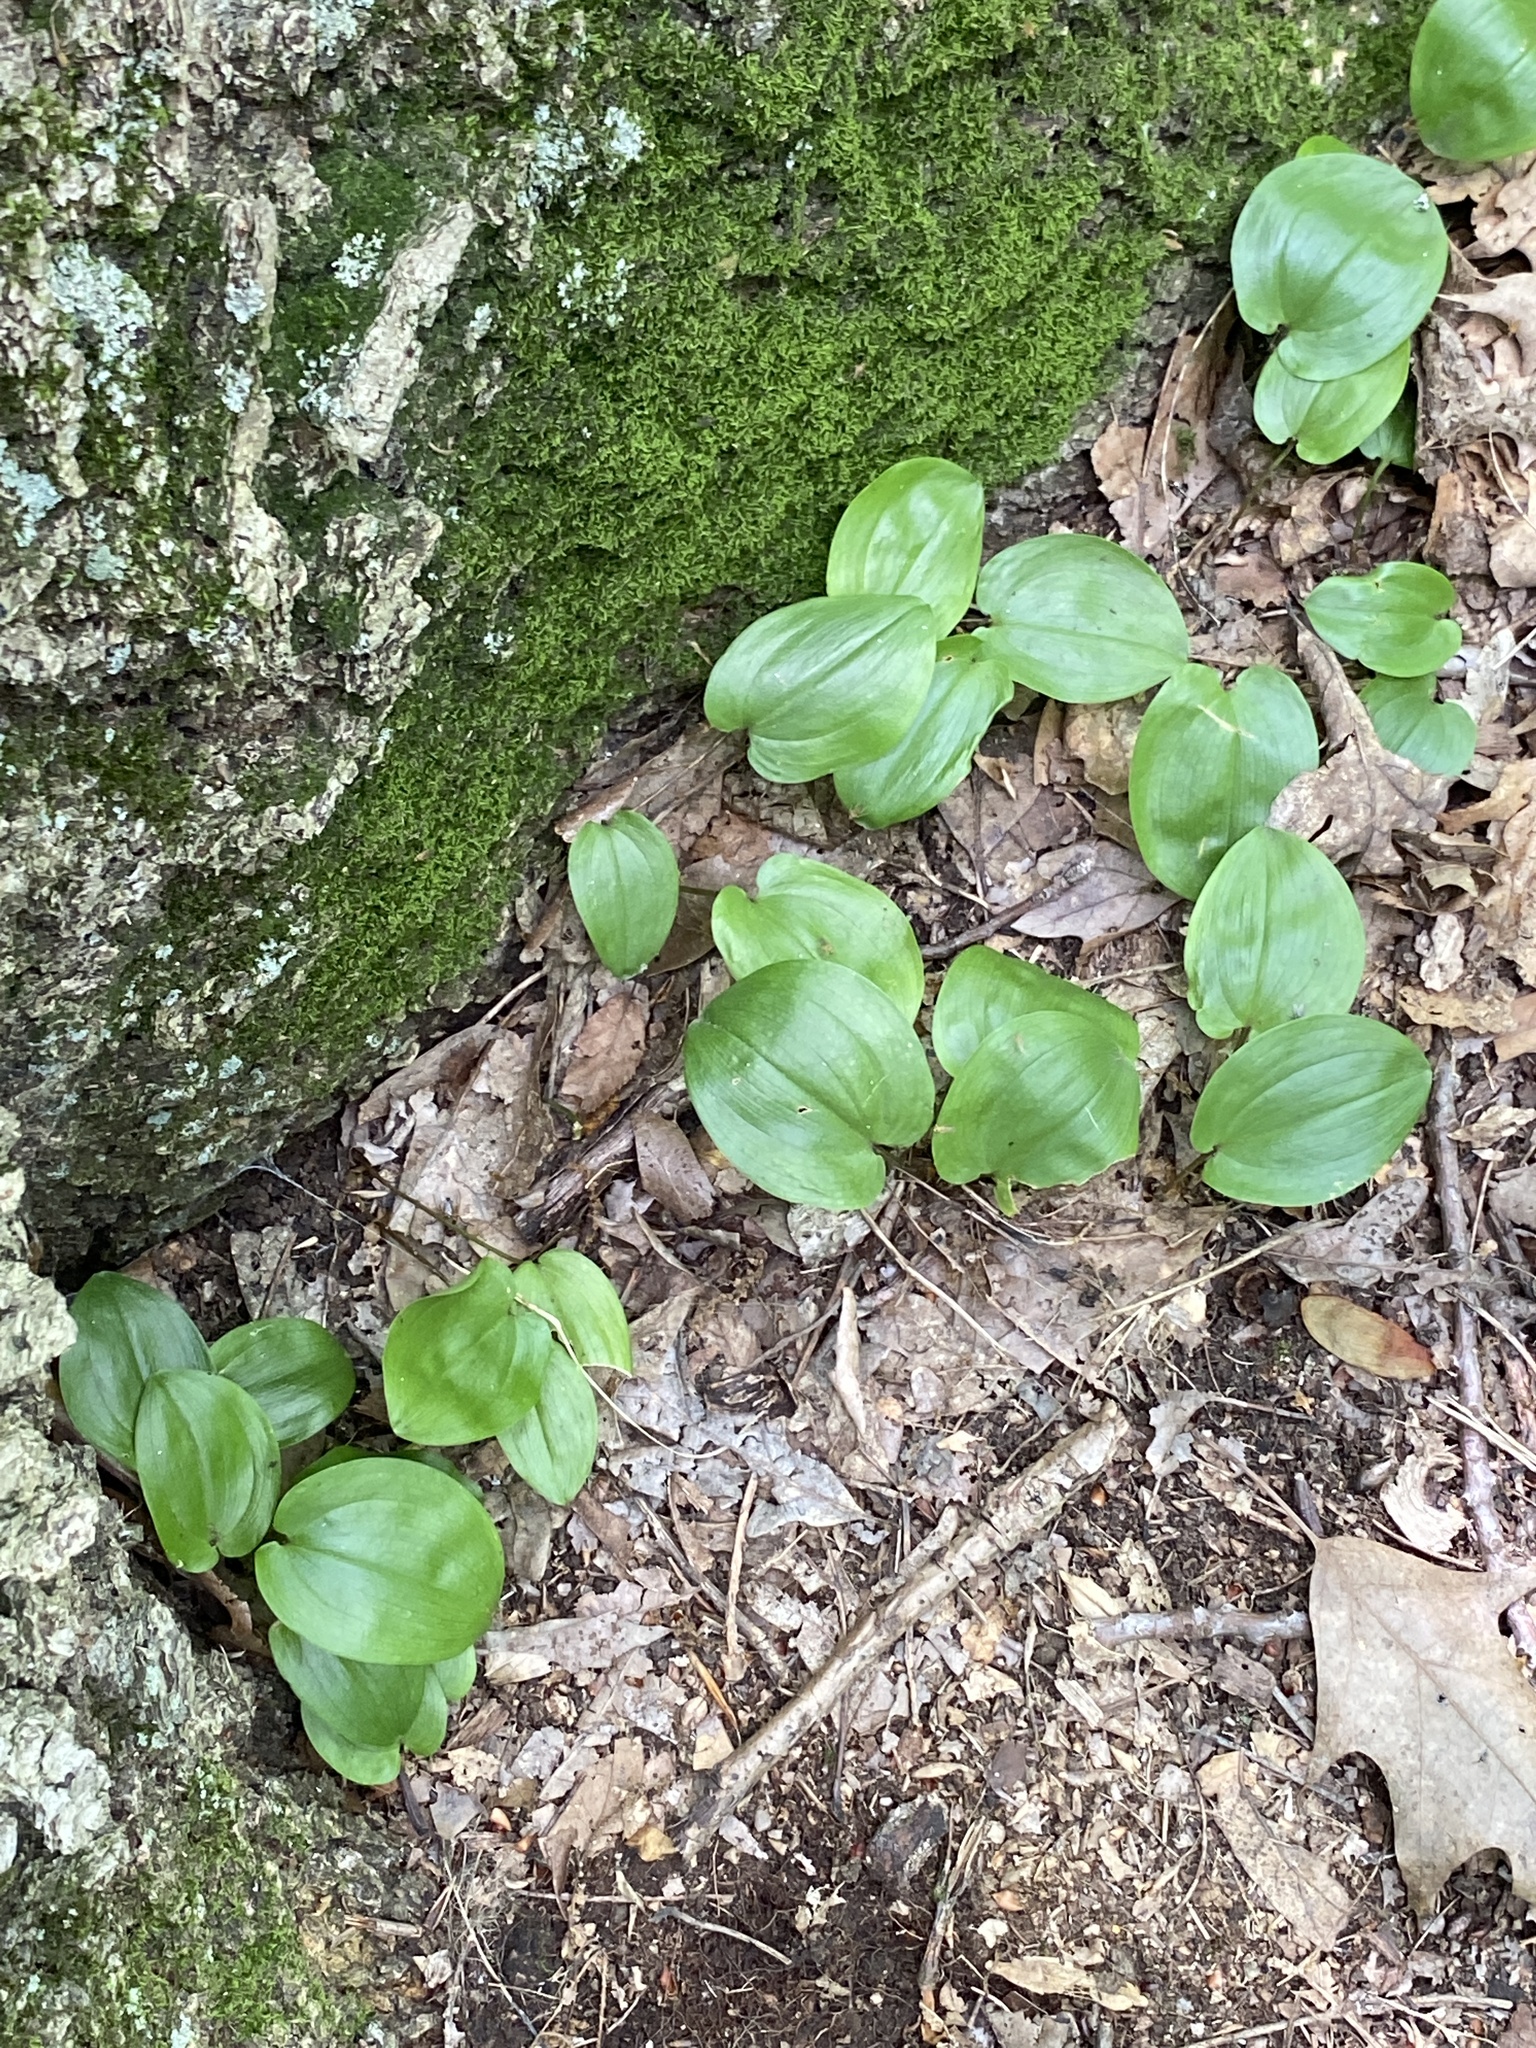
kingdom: Plantae
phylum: Tracheophyta
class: Liliopsida
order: Asparagales
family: Asparagaceae
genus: Maianthemum
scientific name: Maianthemum canadense
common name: False lily-of-the-valley
